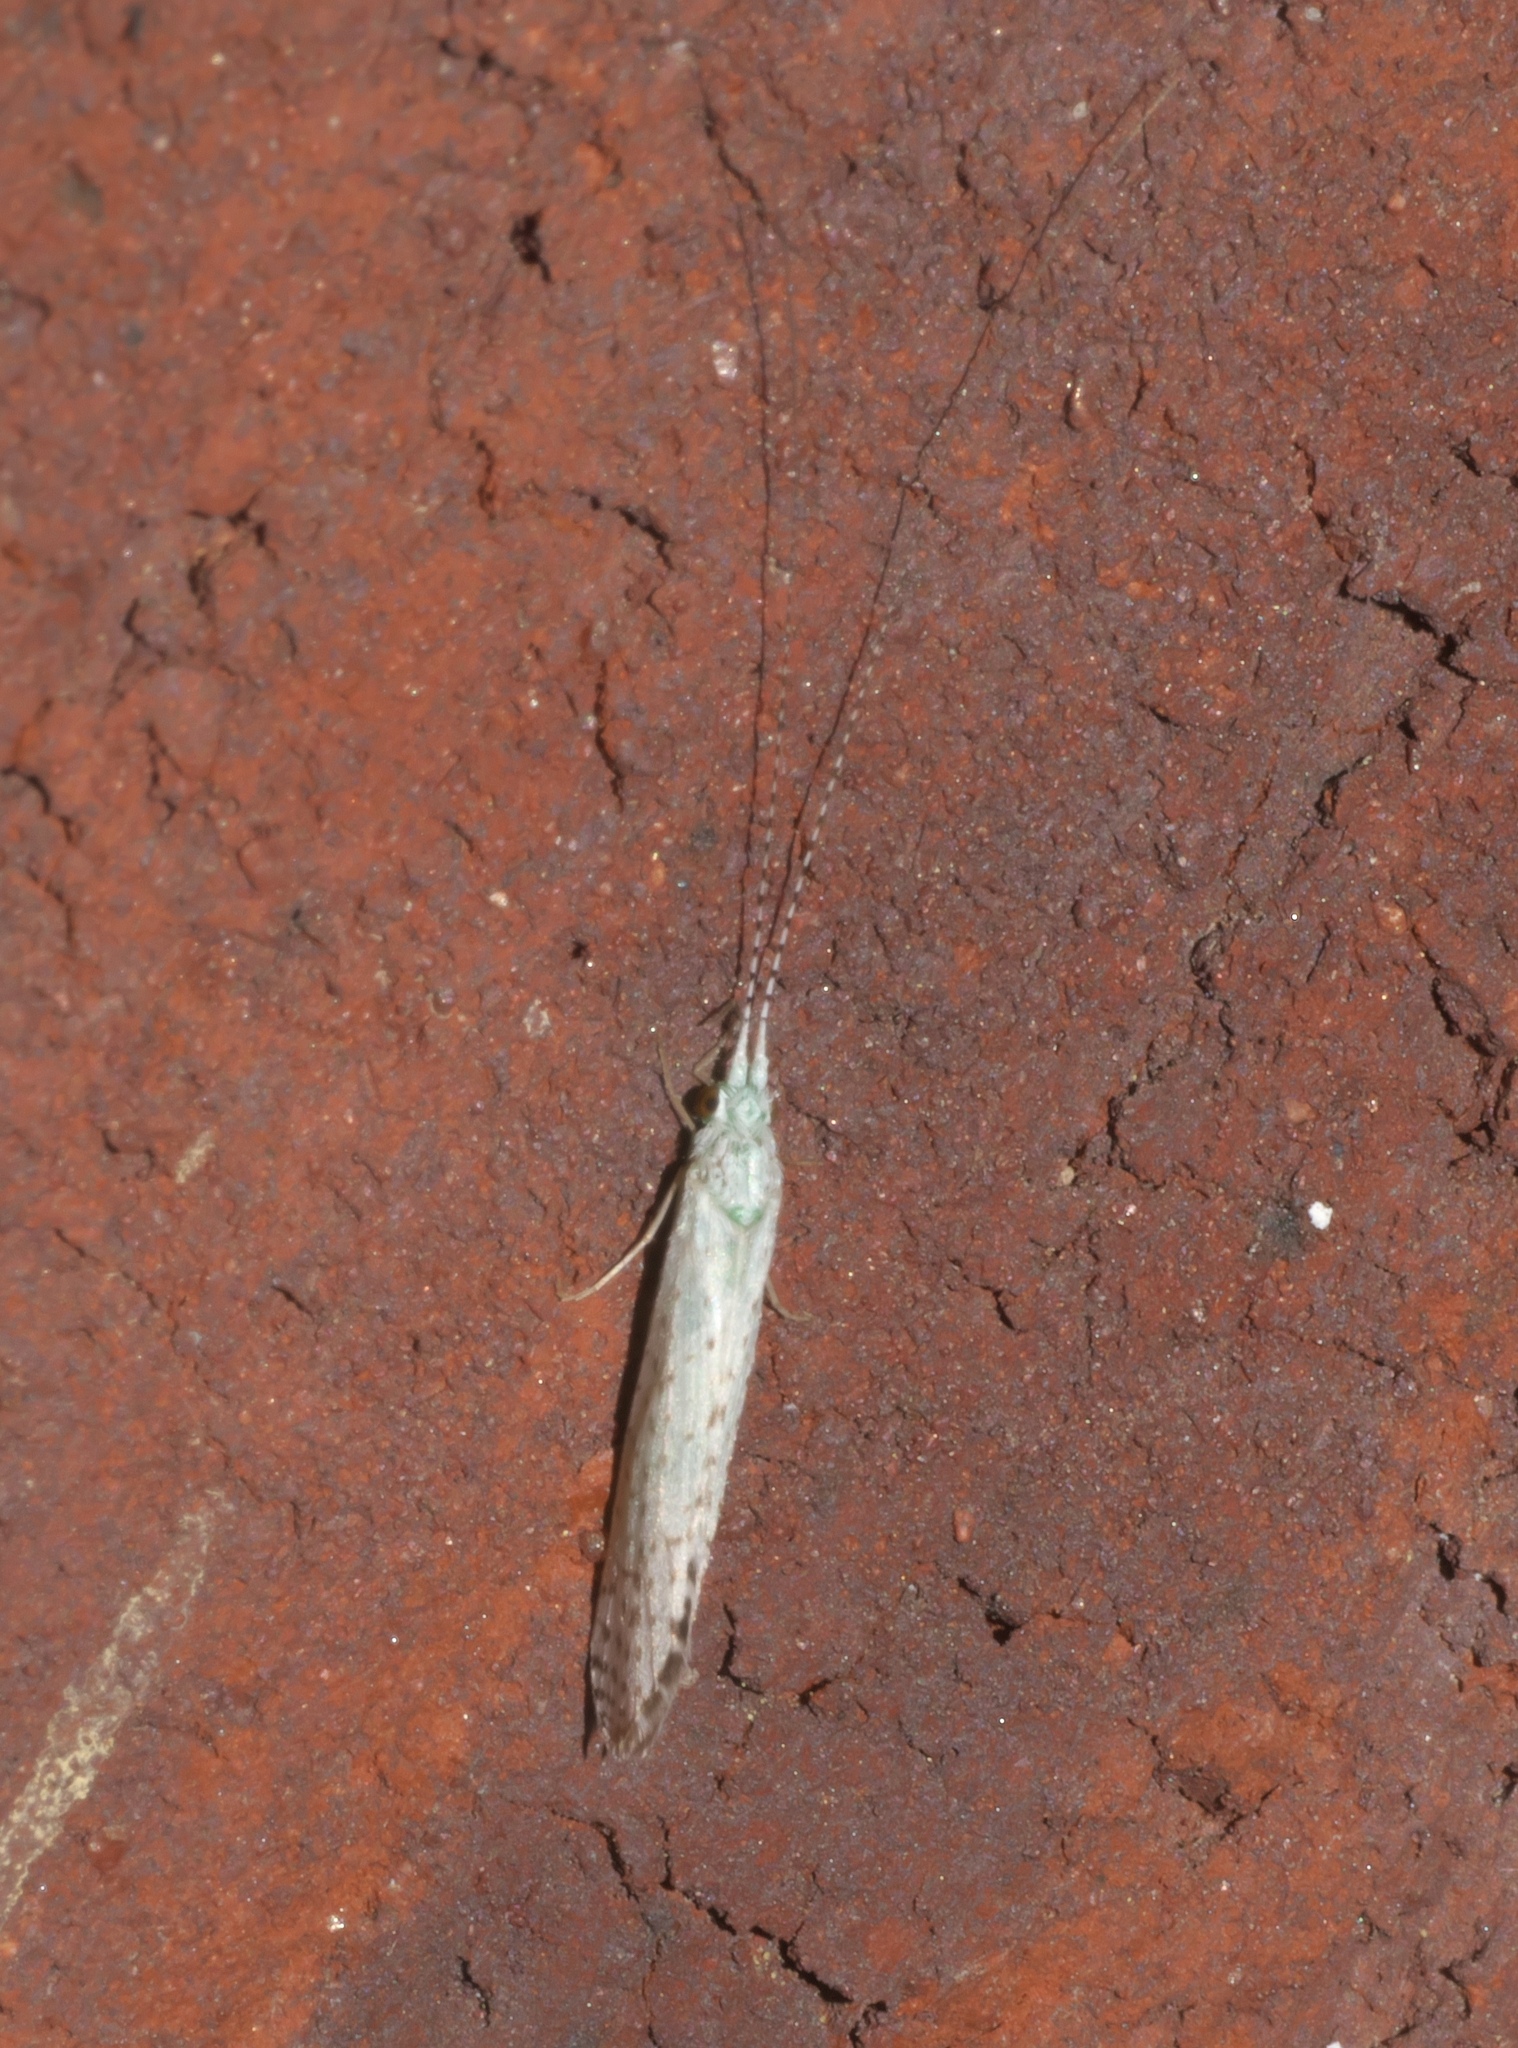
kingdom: Animalia
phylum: Arthropoda
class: Insecta
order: Trichoptera
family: Leptoceridae
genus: Nectopsyche
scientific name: Nectopsyche candida
